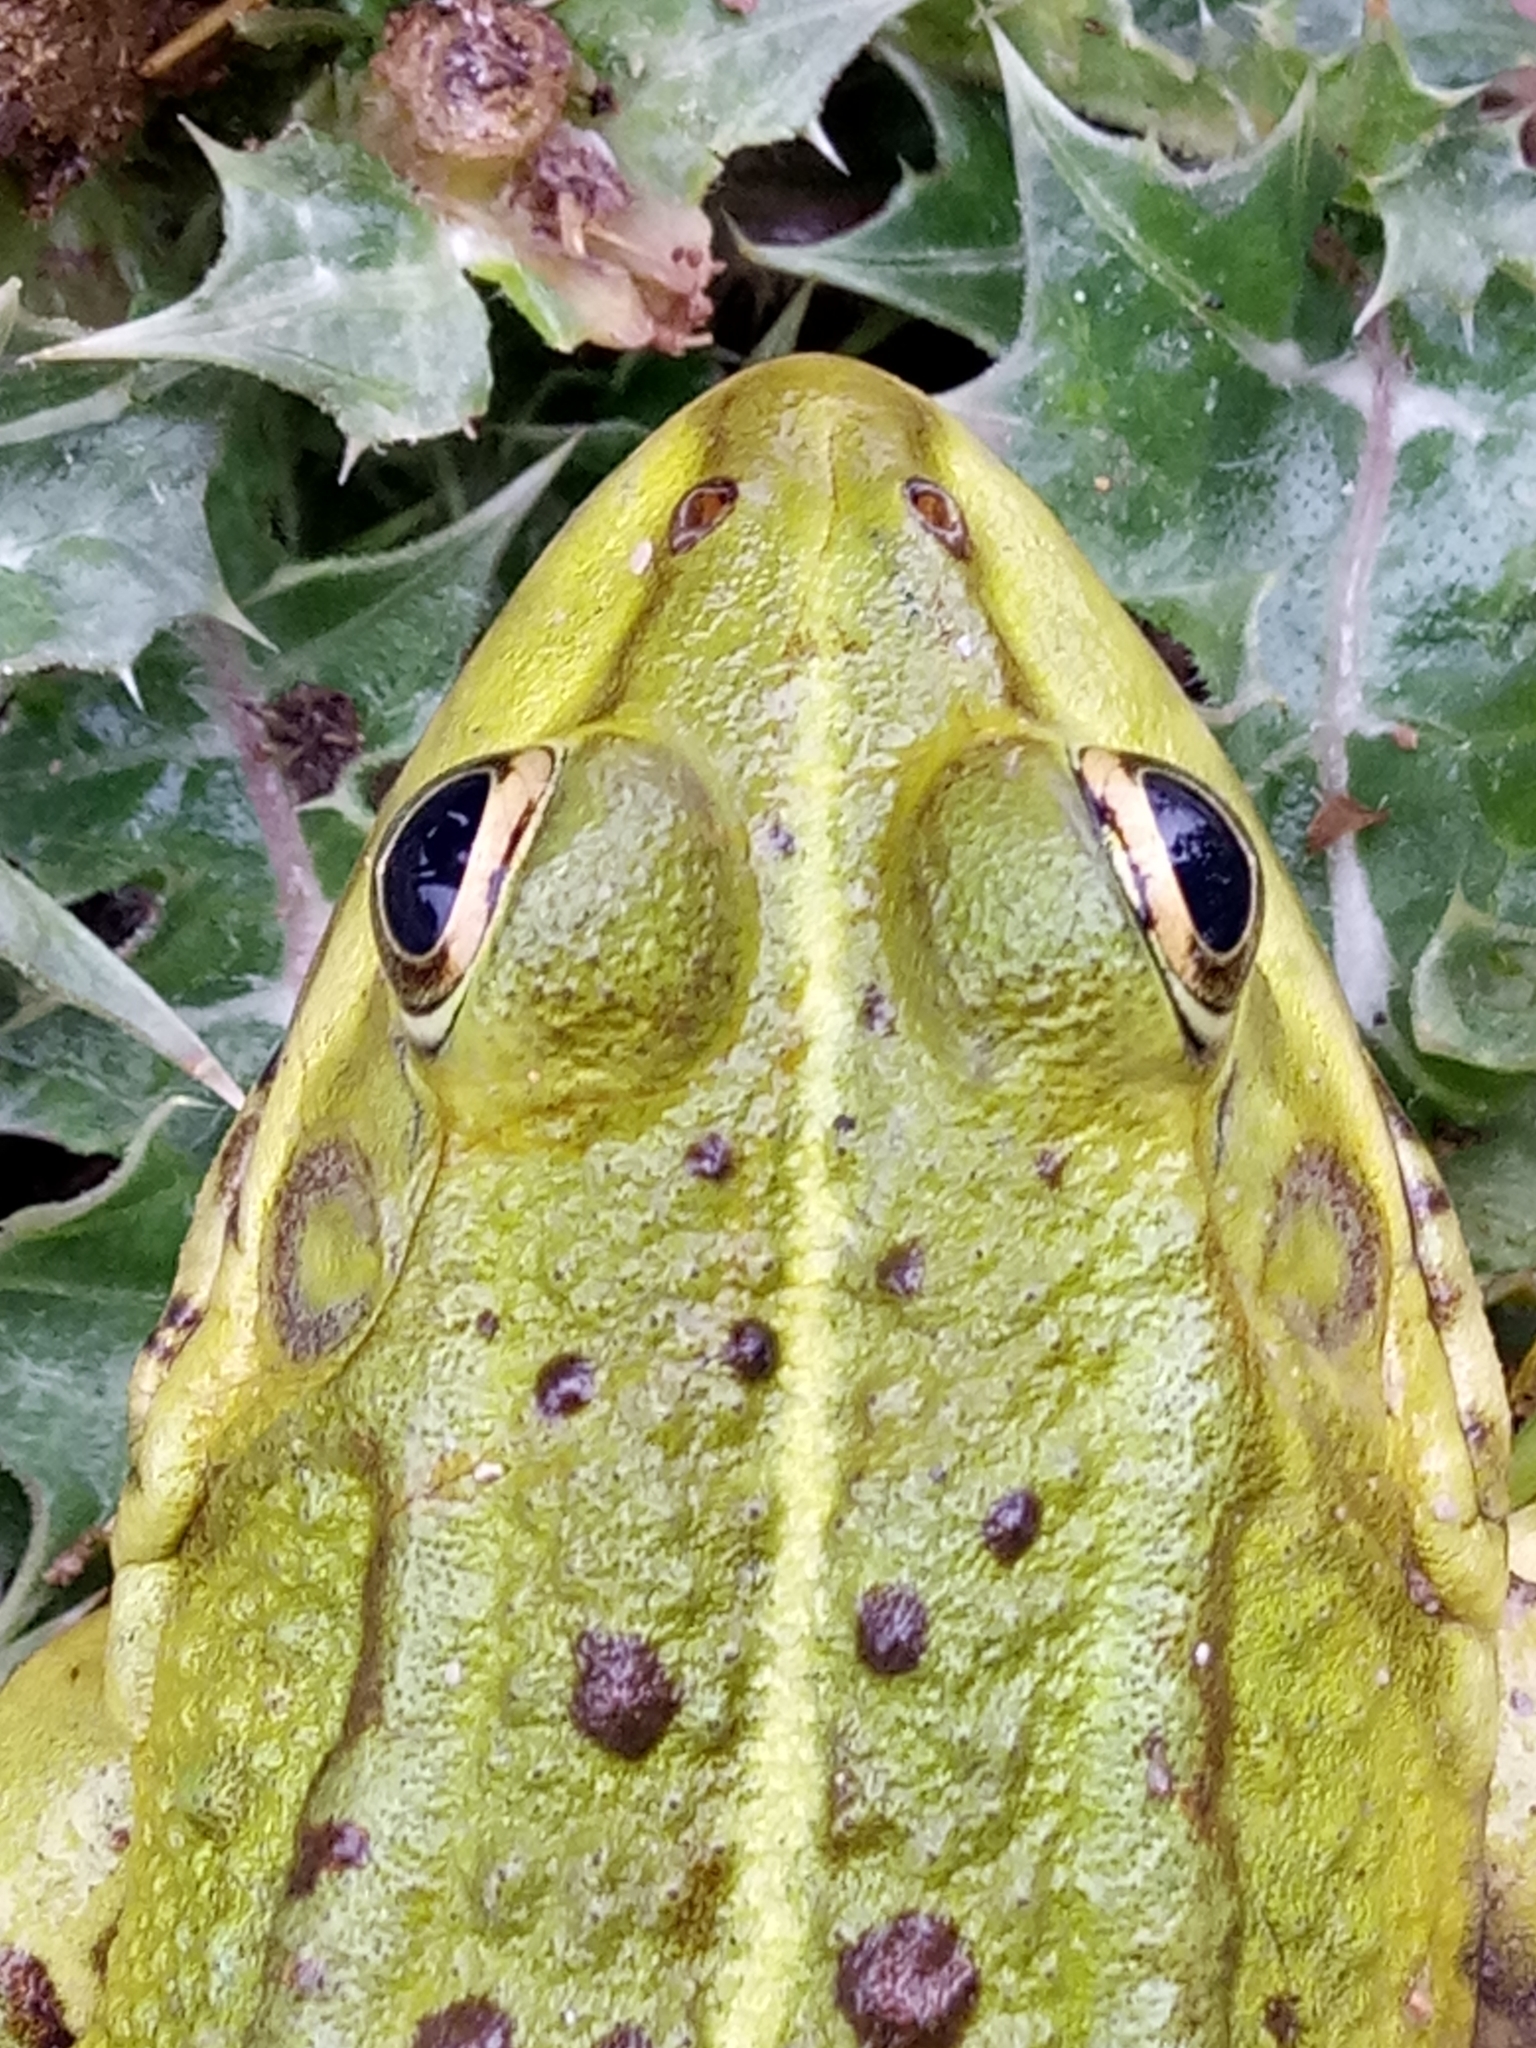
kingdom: Animalia
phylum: Chordata
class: Amphibia
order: Anura
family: Ranidae
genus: Pelophylax
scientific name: Pelophylax saharicus
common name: Sahara frog
